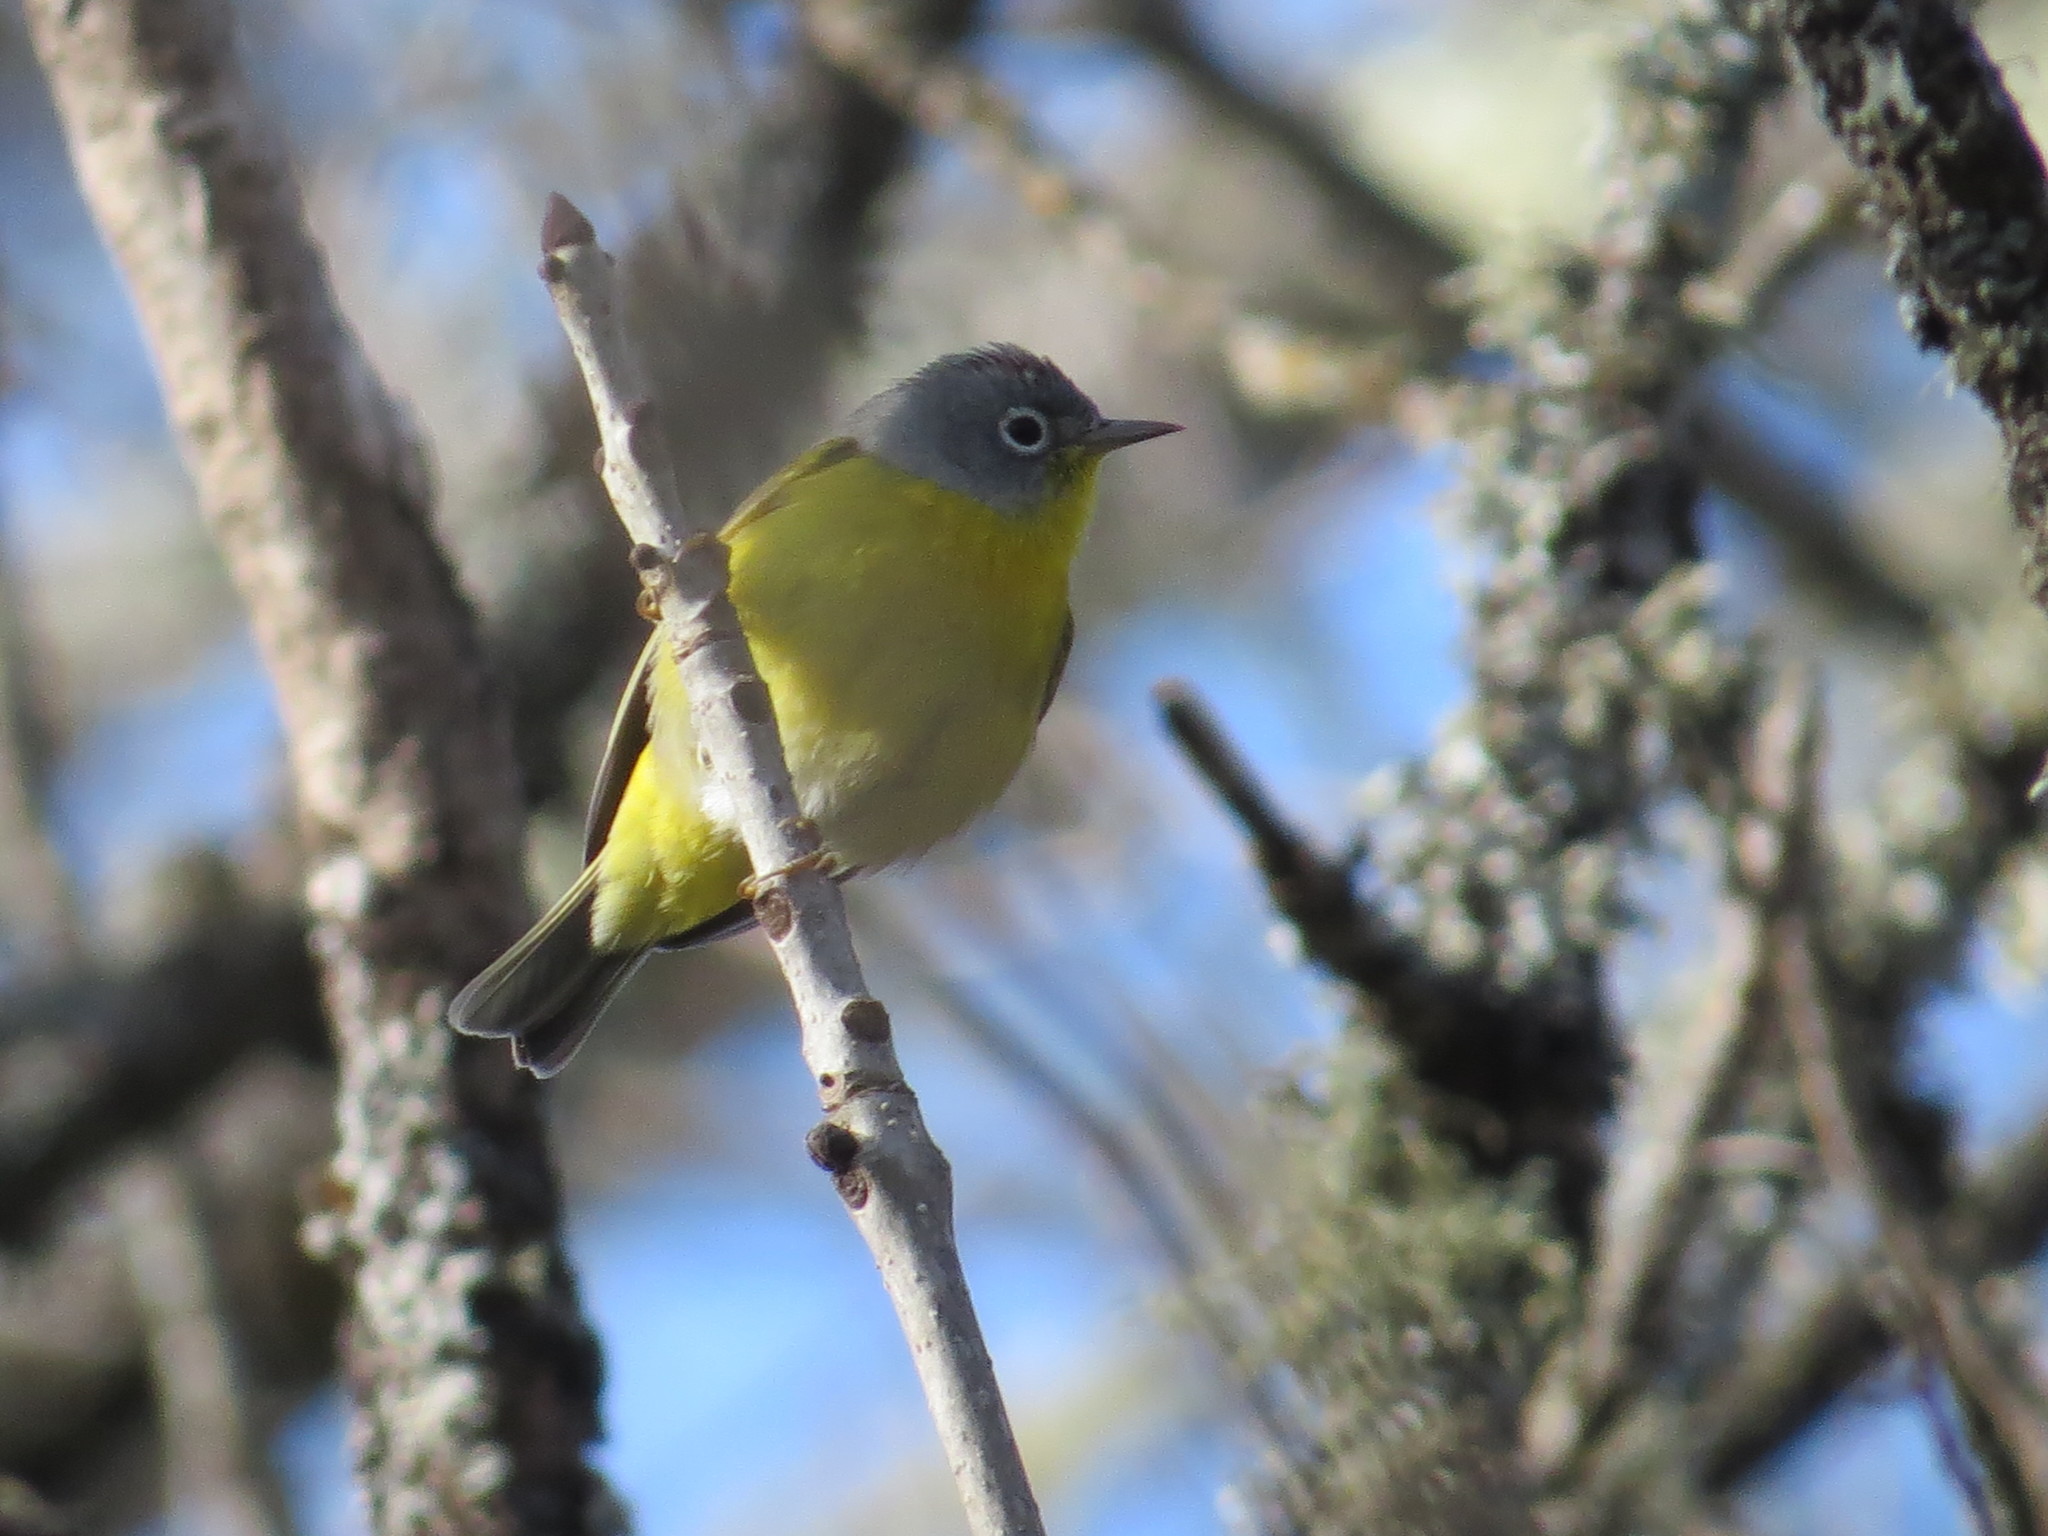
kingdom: Animalia
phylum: Chordata
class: Aves
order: Passeriformes
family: Parulidae
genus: Leiothlypis
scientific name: Leiothlypis ruficapilla
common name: Nashville warbler
